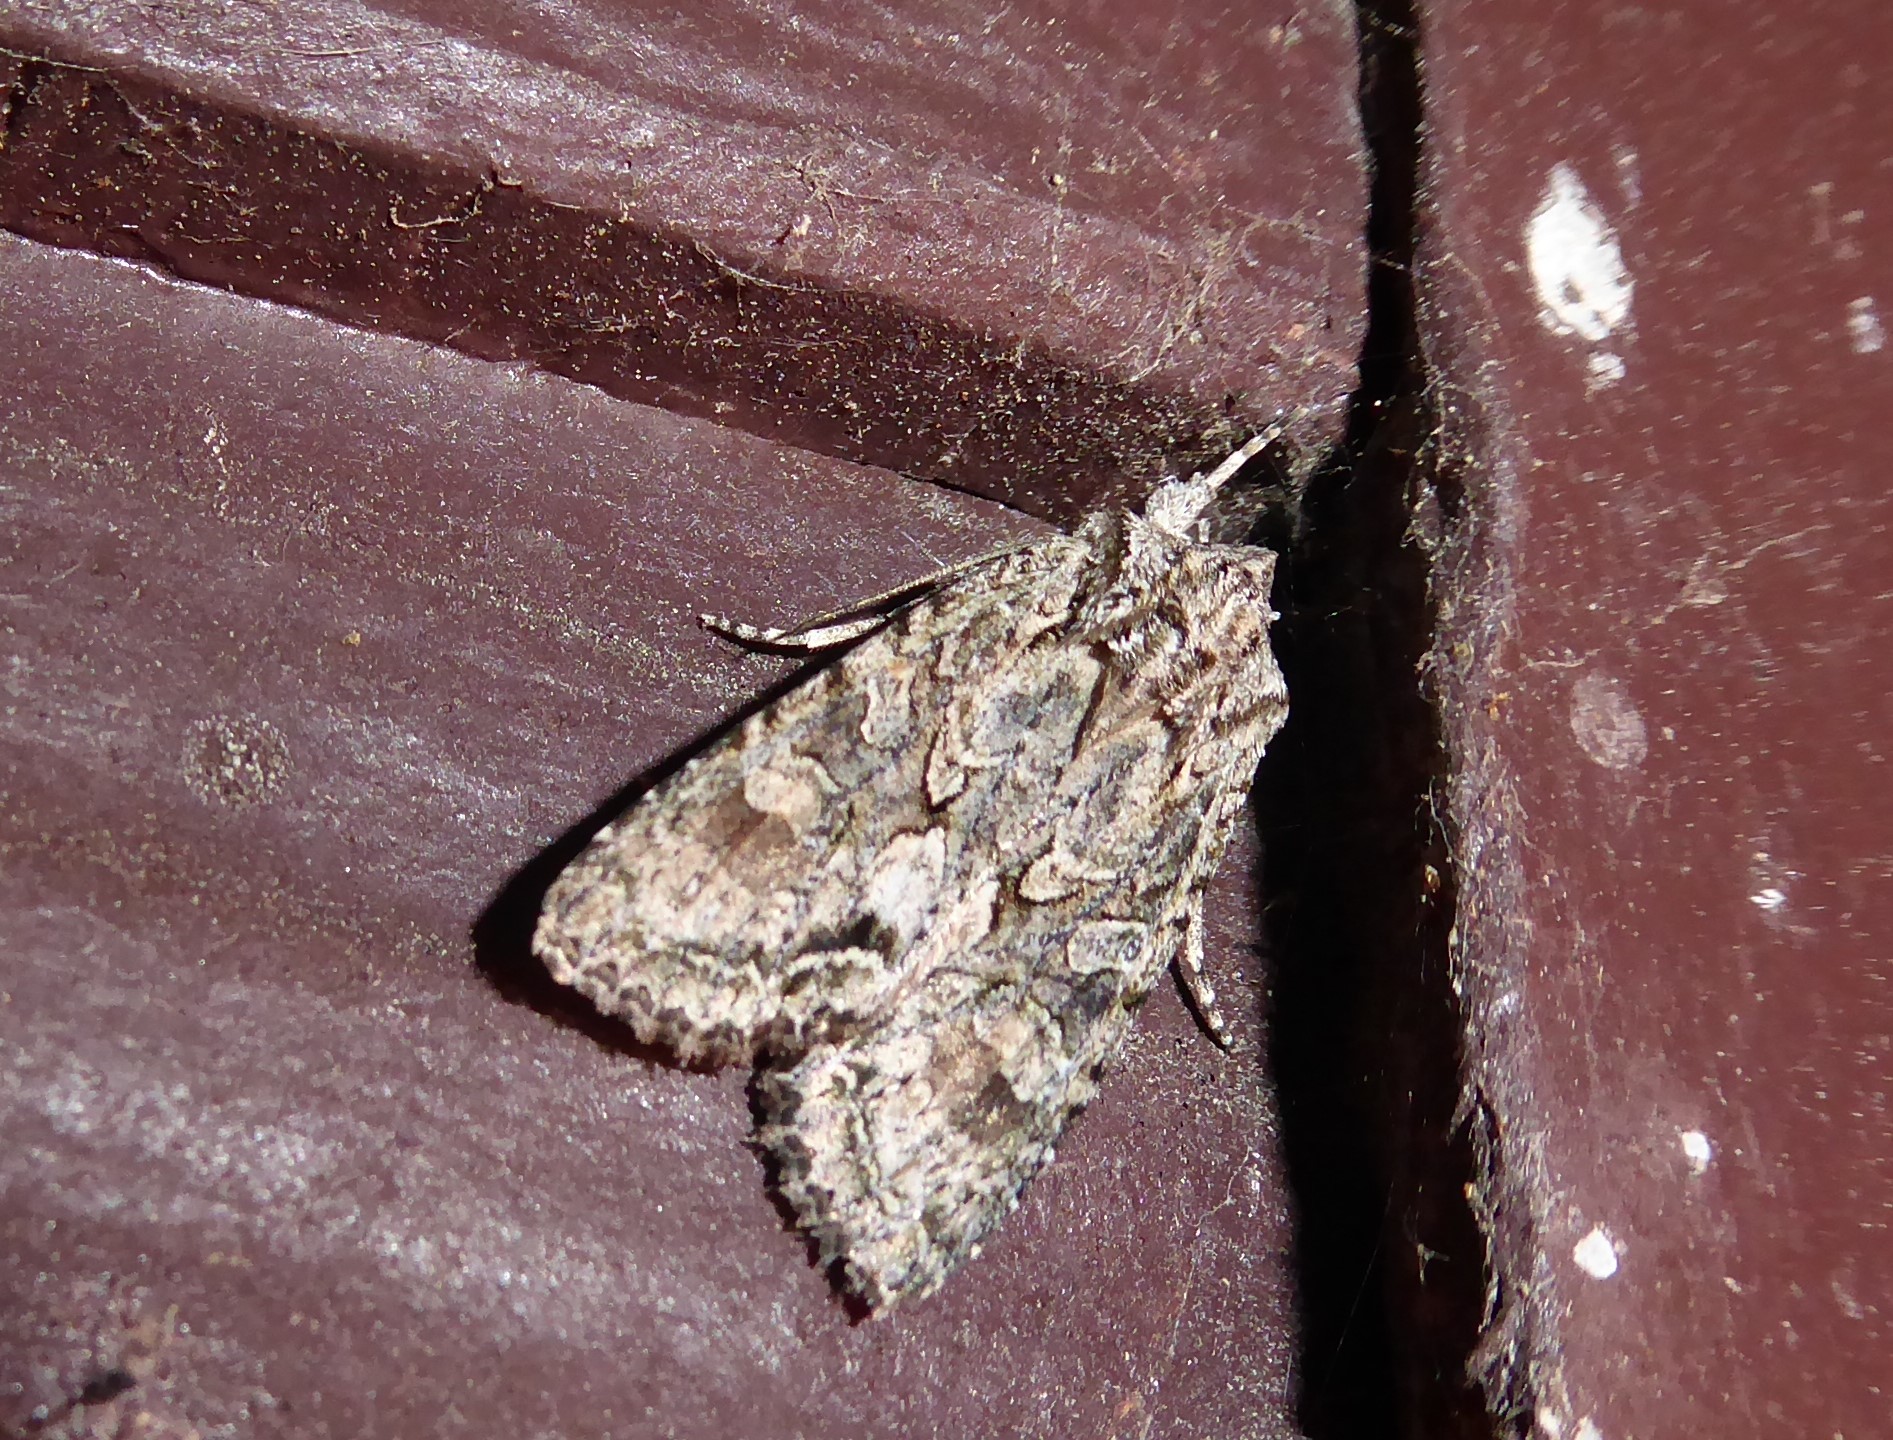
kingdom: Animalia
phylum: Arthropoda
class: Insecta
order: Lepidoptera
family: Noctuidae
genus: Ichneutica
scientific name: Ichneutica mutans
